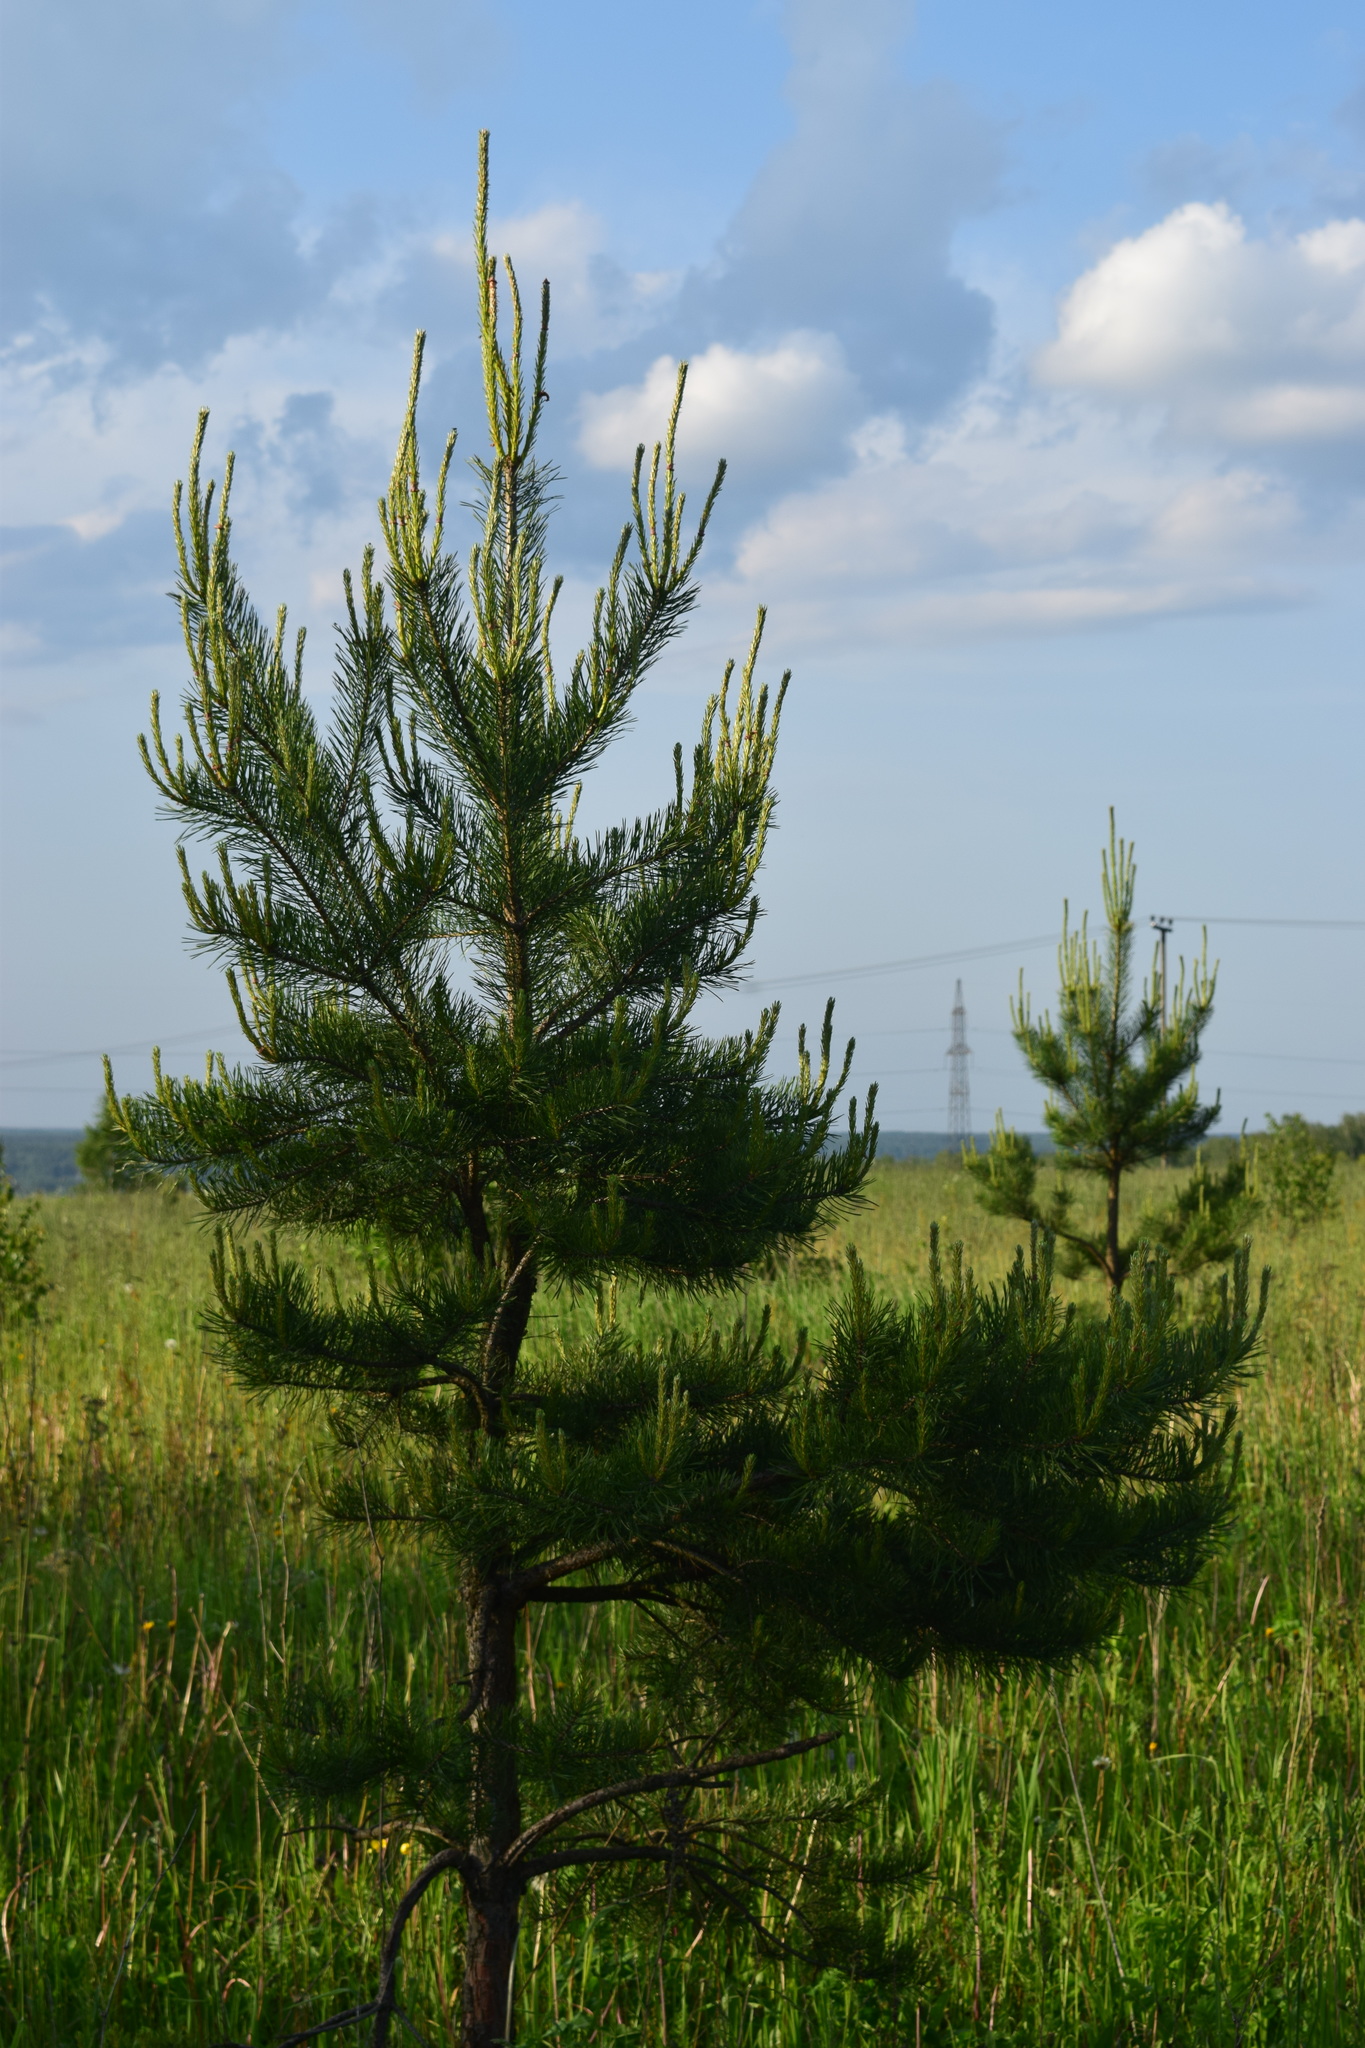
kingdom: Plantae
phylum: Tracheophyta
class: Pinopsida
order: Pinales
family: Pinaceae
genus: Pinus
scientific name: Pinus sylvestris
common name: Scots pine
